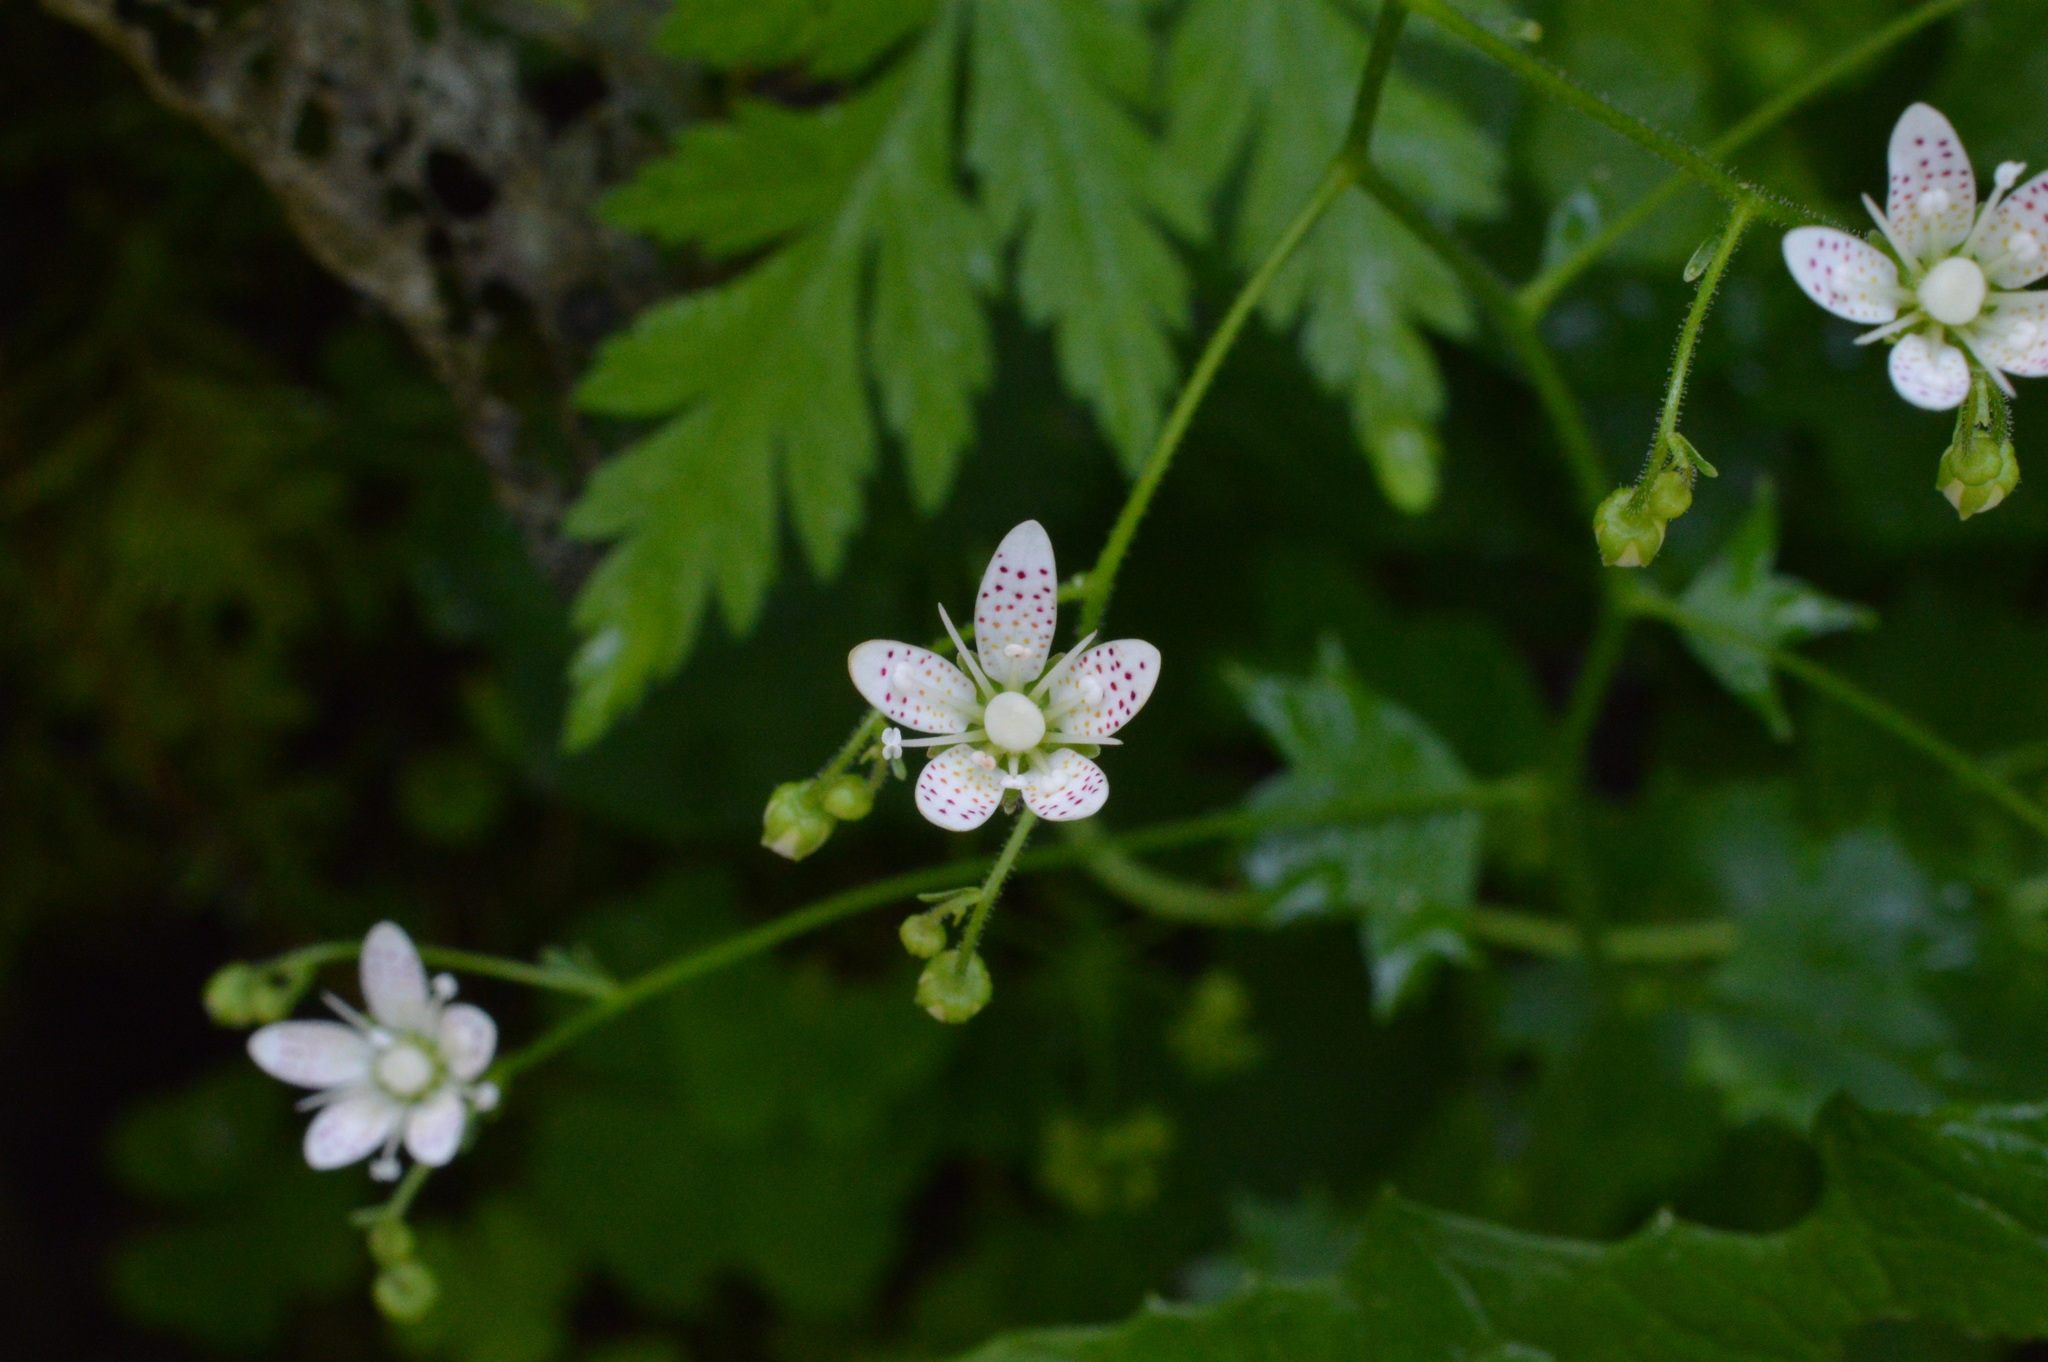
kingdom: Plantae
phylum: Tracheophyta
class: Magnoliopsida
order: Saxifragales
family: Saxifragaceae
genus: Saxifraga
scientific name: Saxifraga rotundifolia
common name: Round-leaved saxifrage
